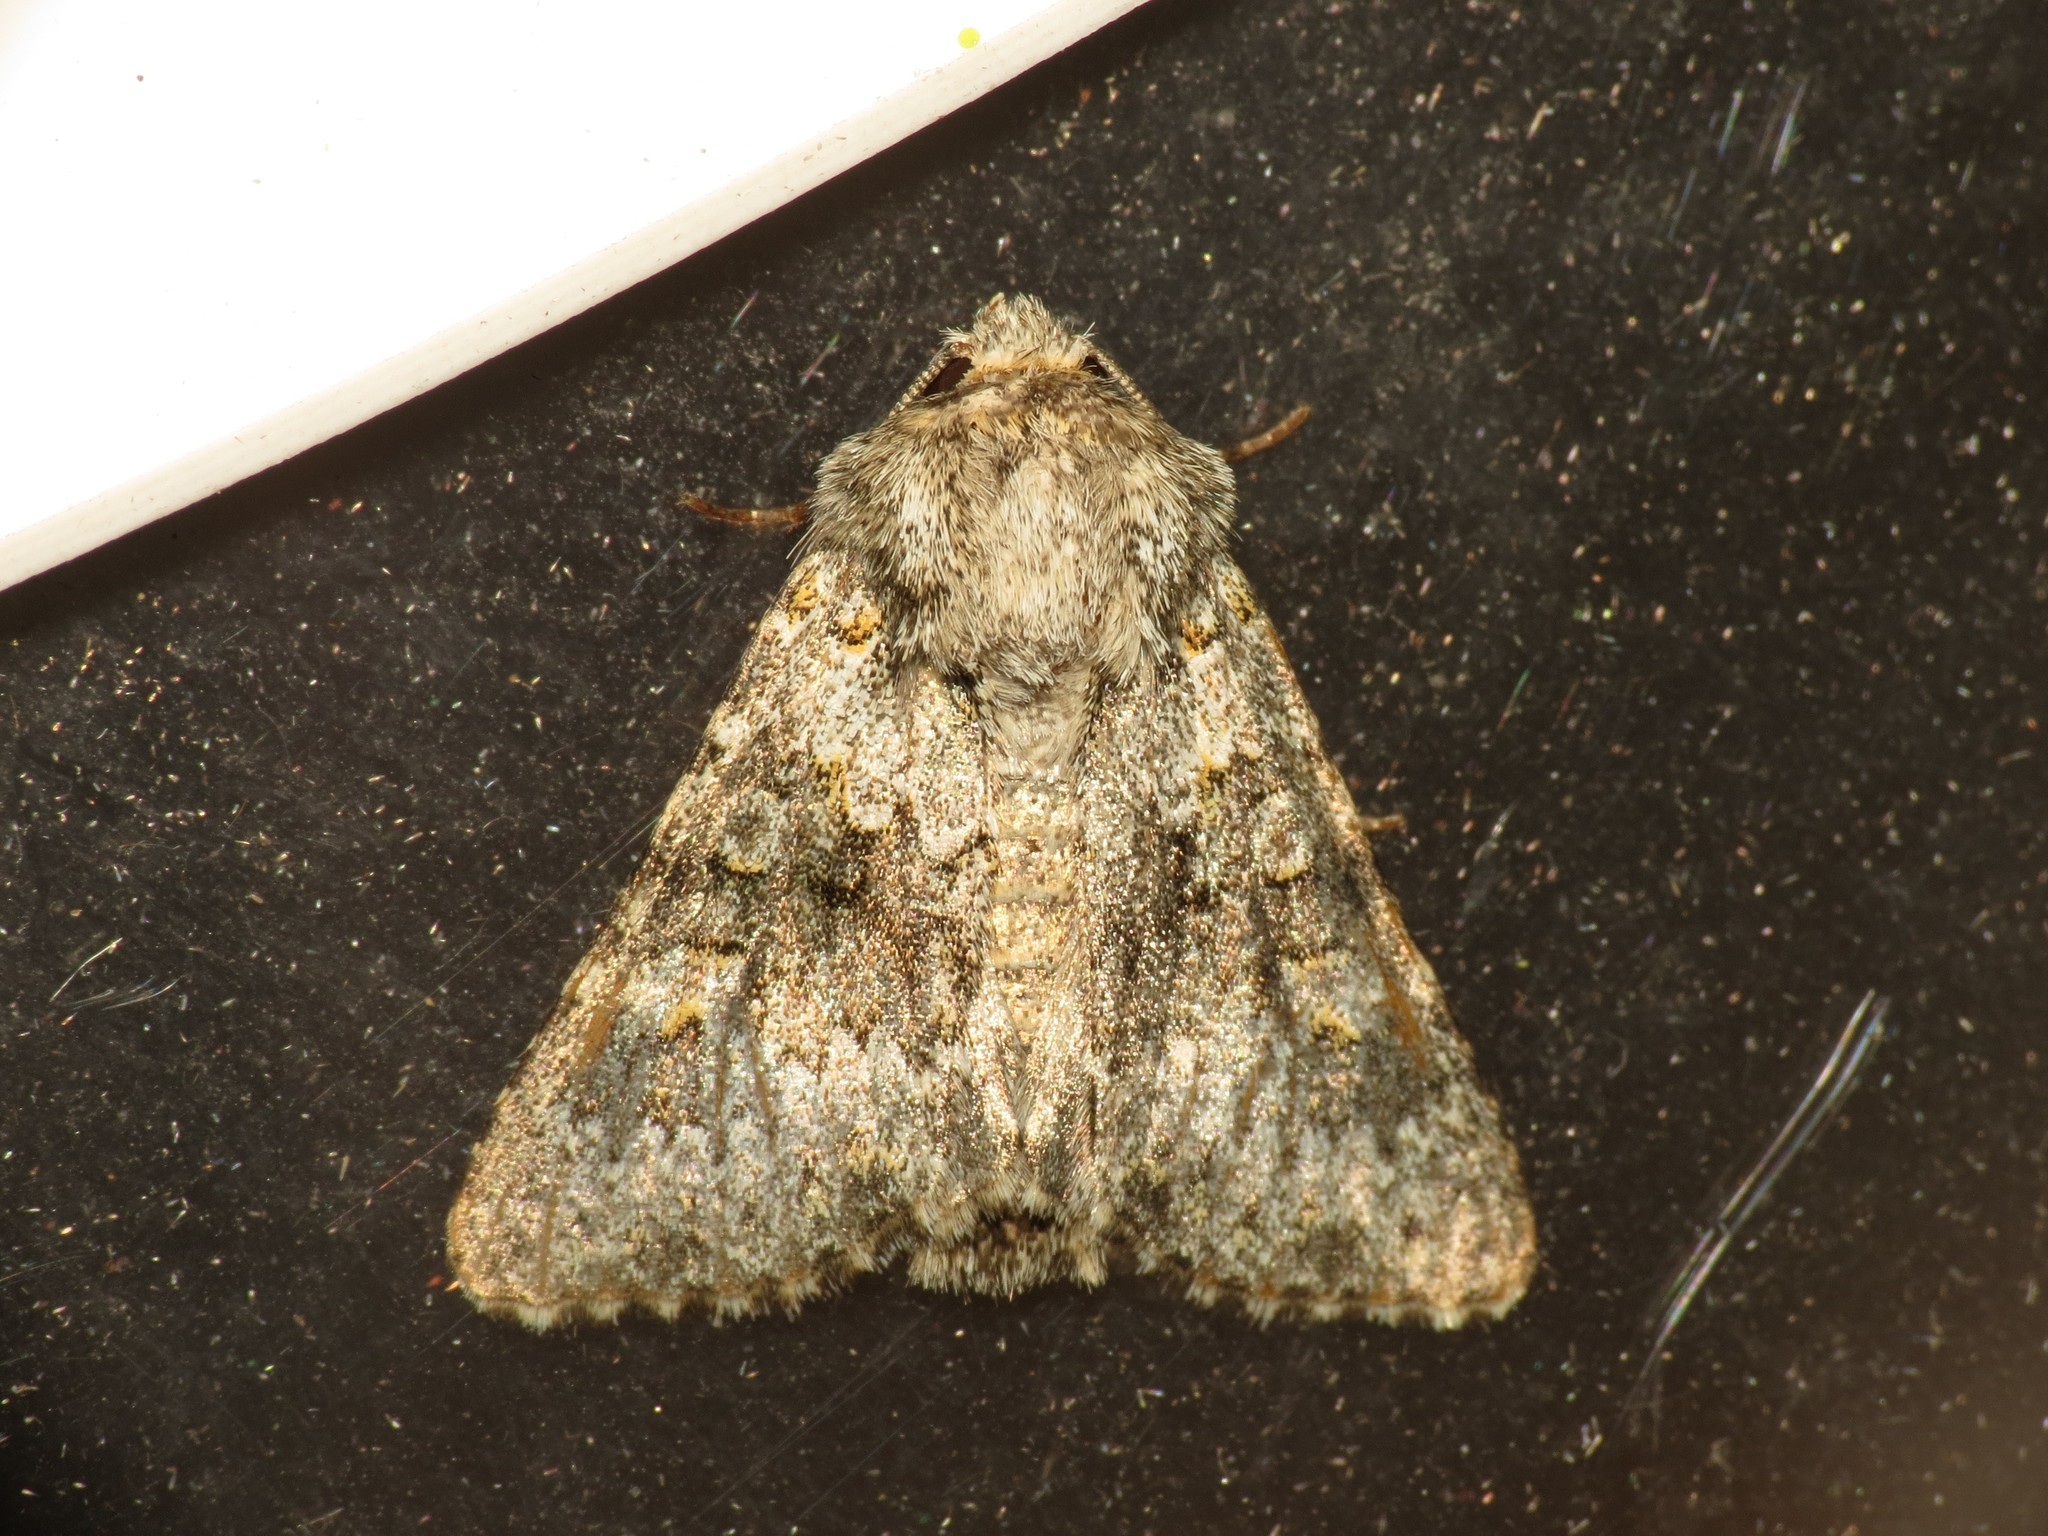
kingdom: Animalia
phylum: Arthropoda
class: Insecta
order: Lepidoptera
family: Noctuidae
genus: Hecatera
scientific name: Hecatera dysodea
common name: Small ranunculus
